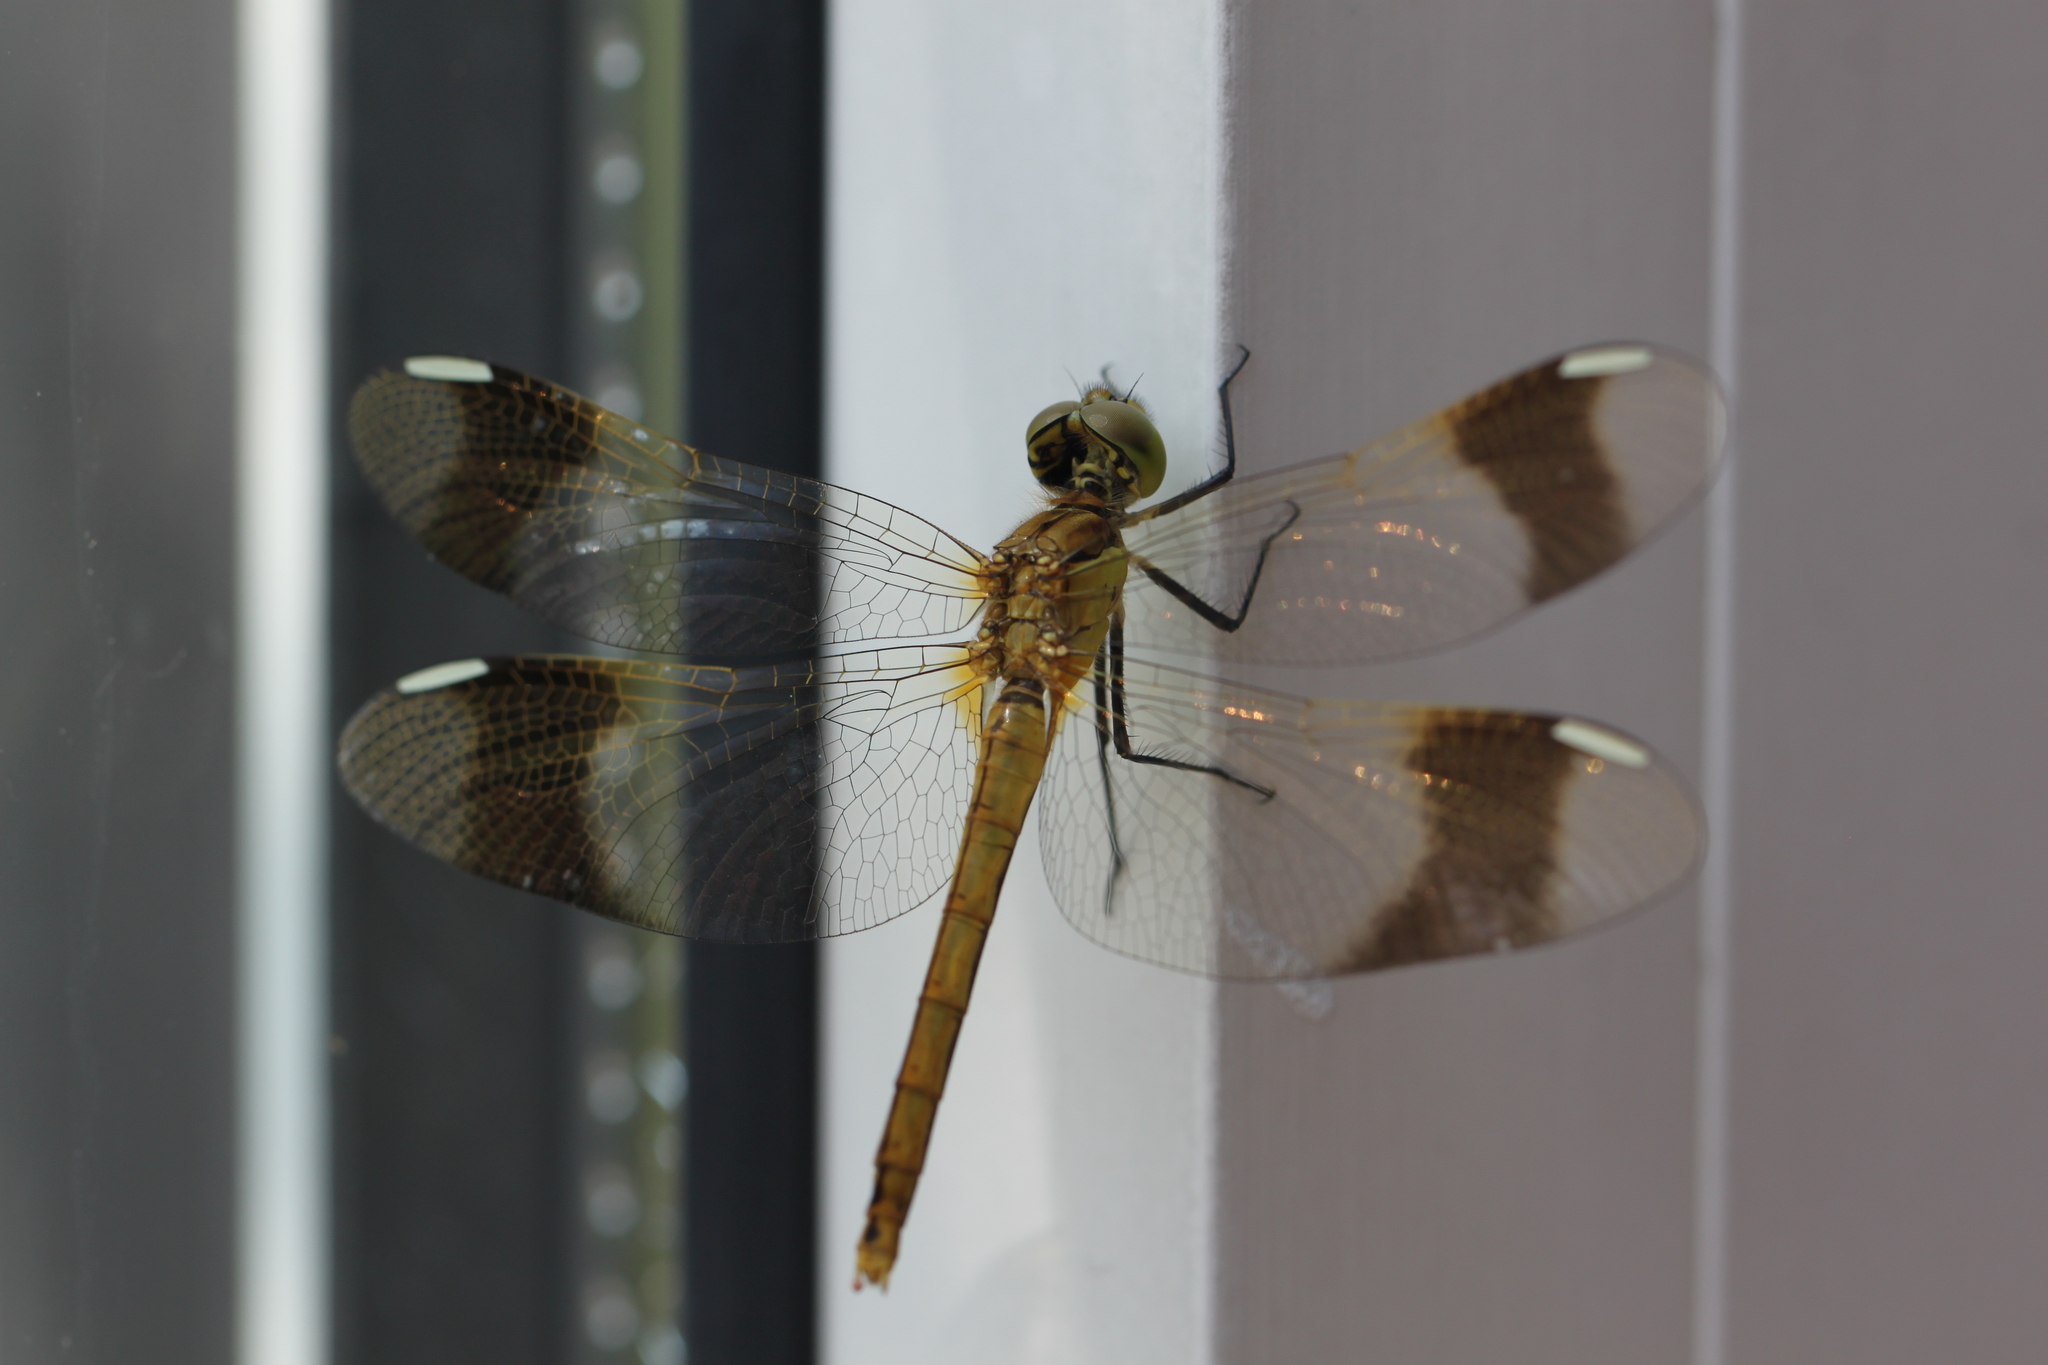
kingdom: Animalia
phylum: Arthropoda
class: Insecta
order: Odonata
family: Libellulidae
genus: Sympetrum
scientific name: Sympetrum pedemontanum
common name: Banded darter
